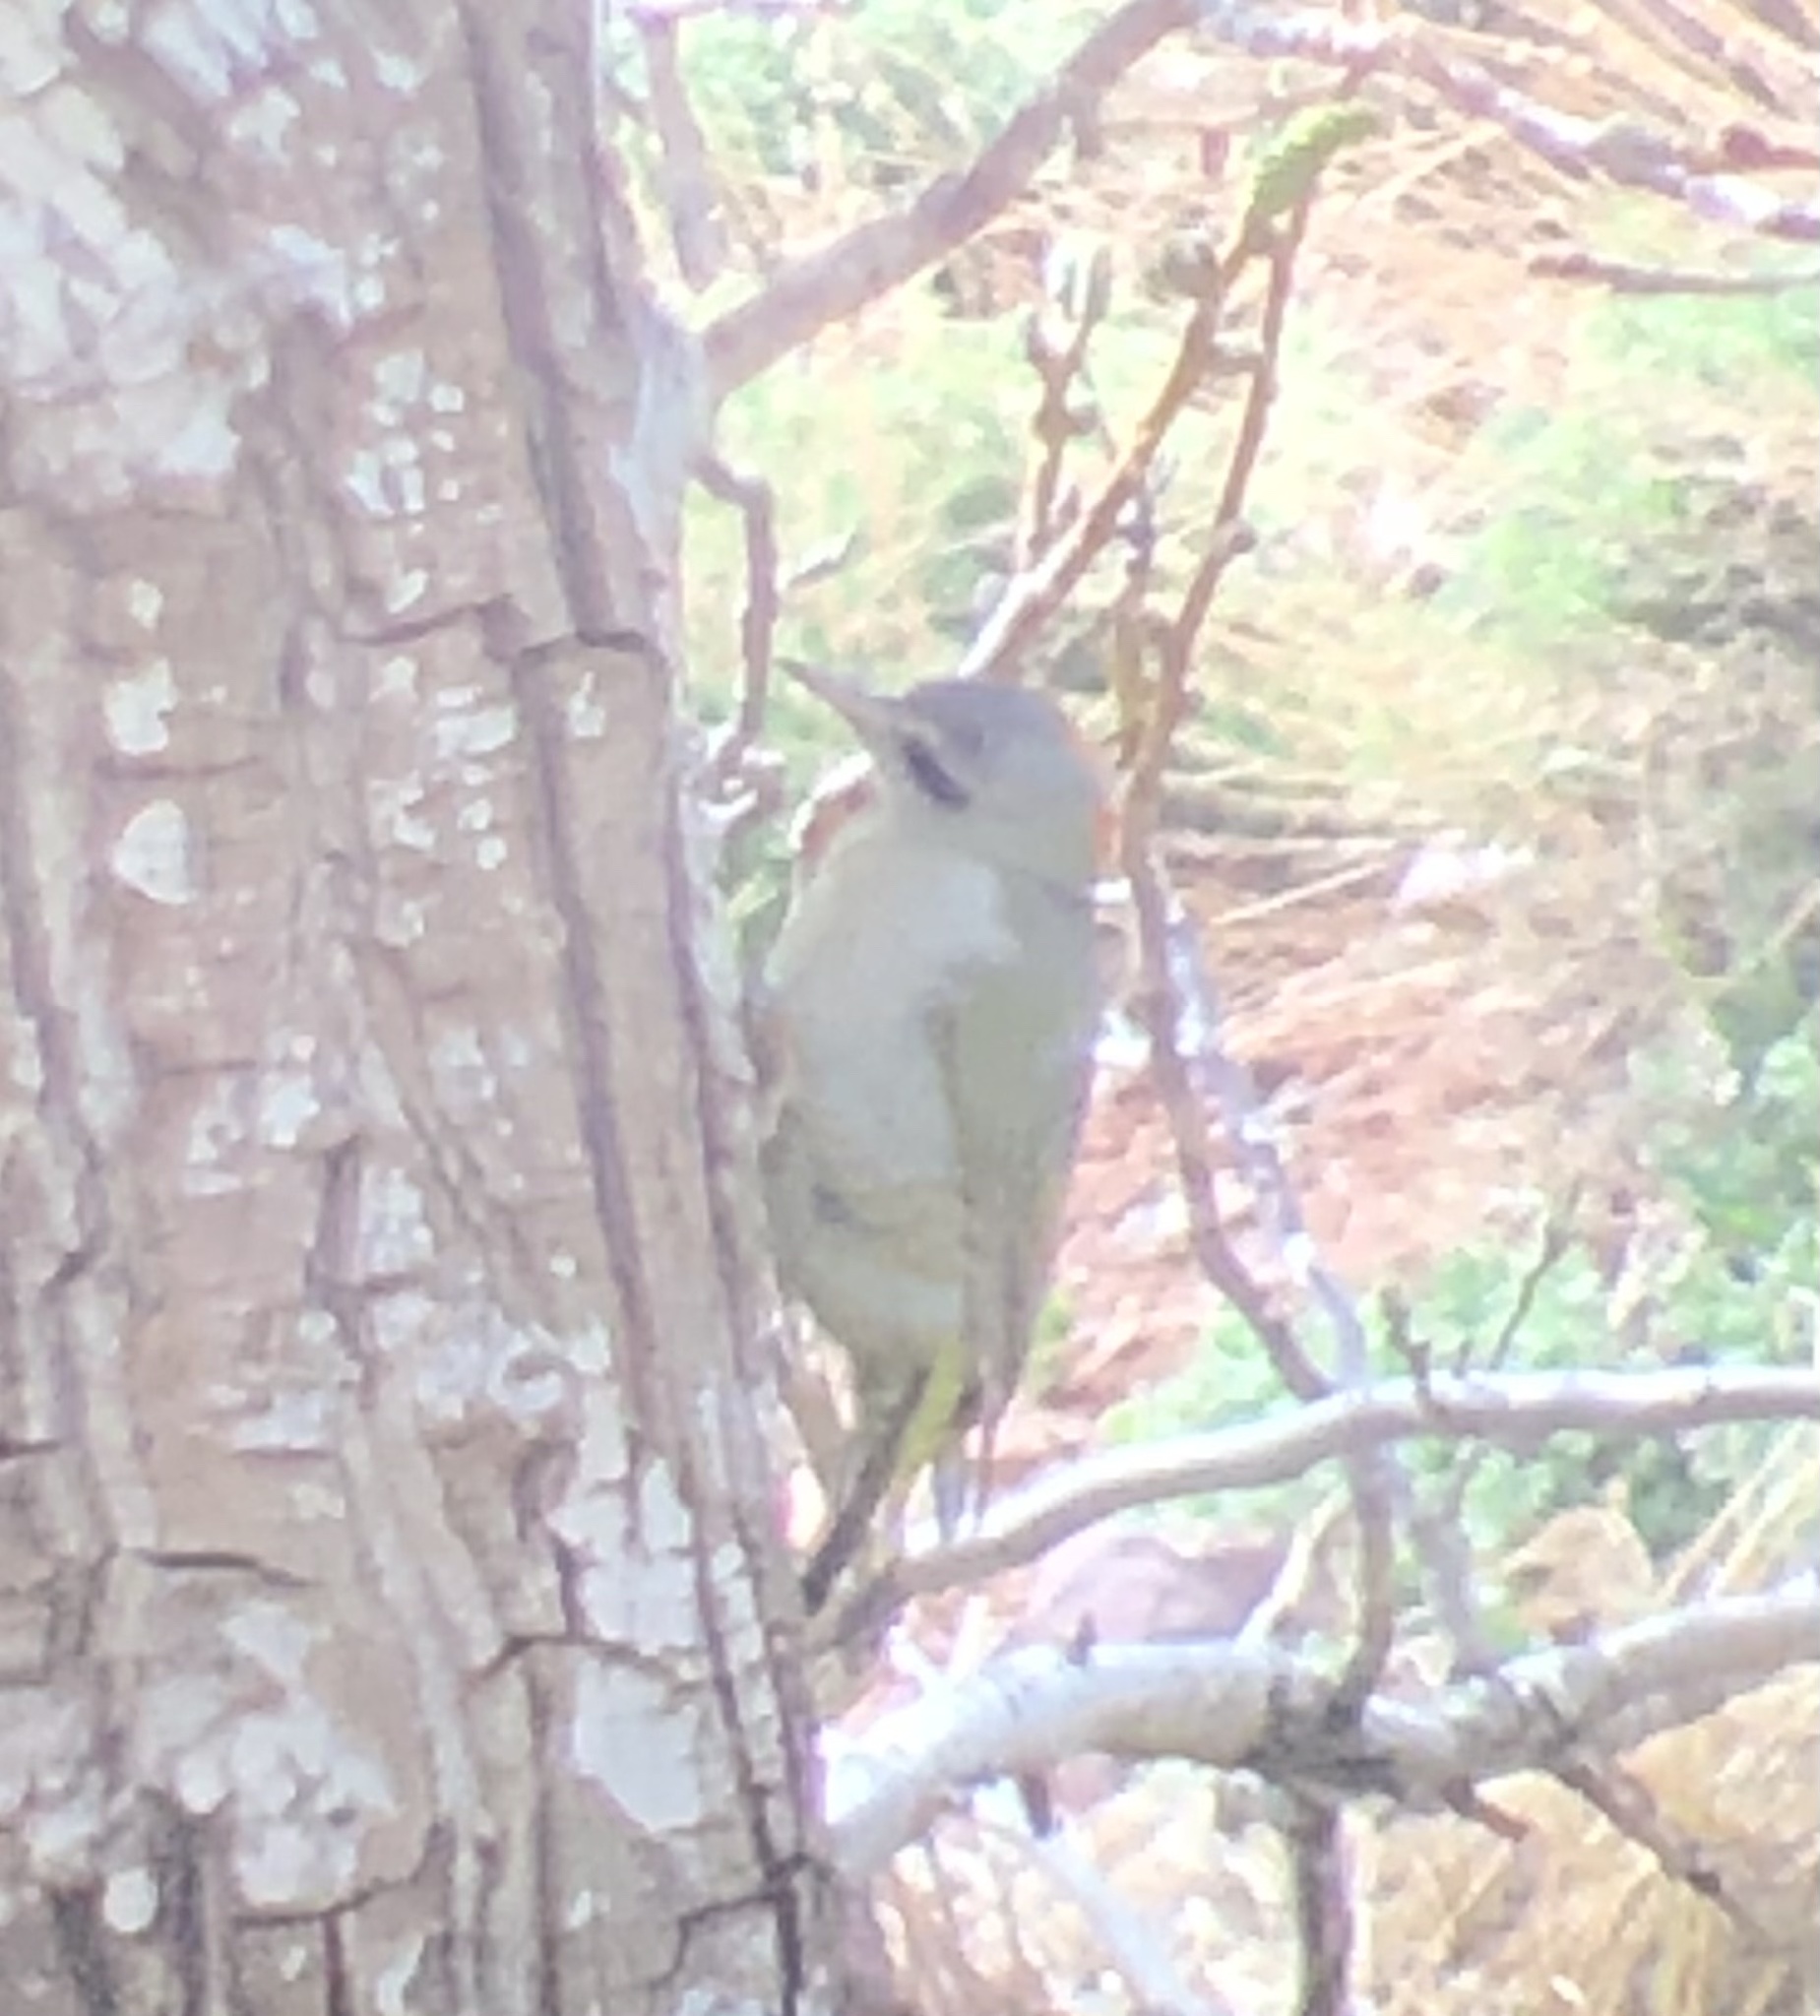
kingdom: Animalia
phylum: Chordata
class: Aves
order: Piciformes
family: Picidae
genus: Picus
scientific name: Picus vaillantii
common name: Levaillant's woodpecker
